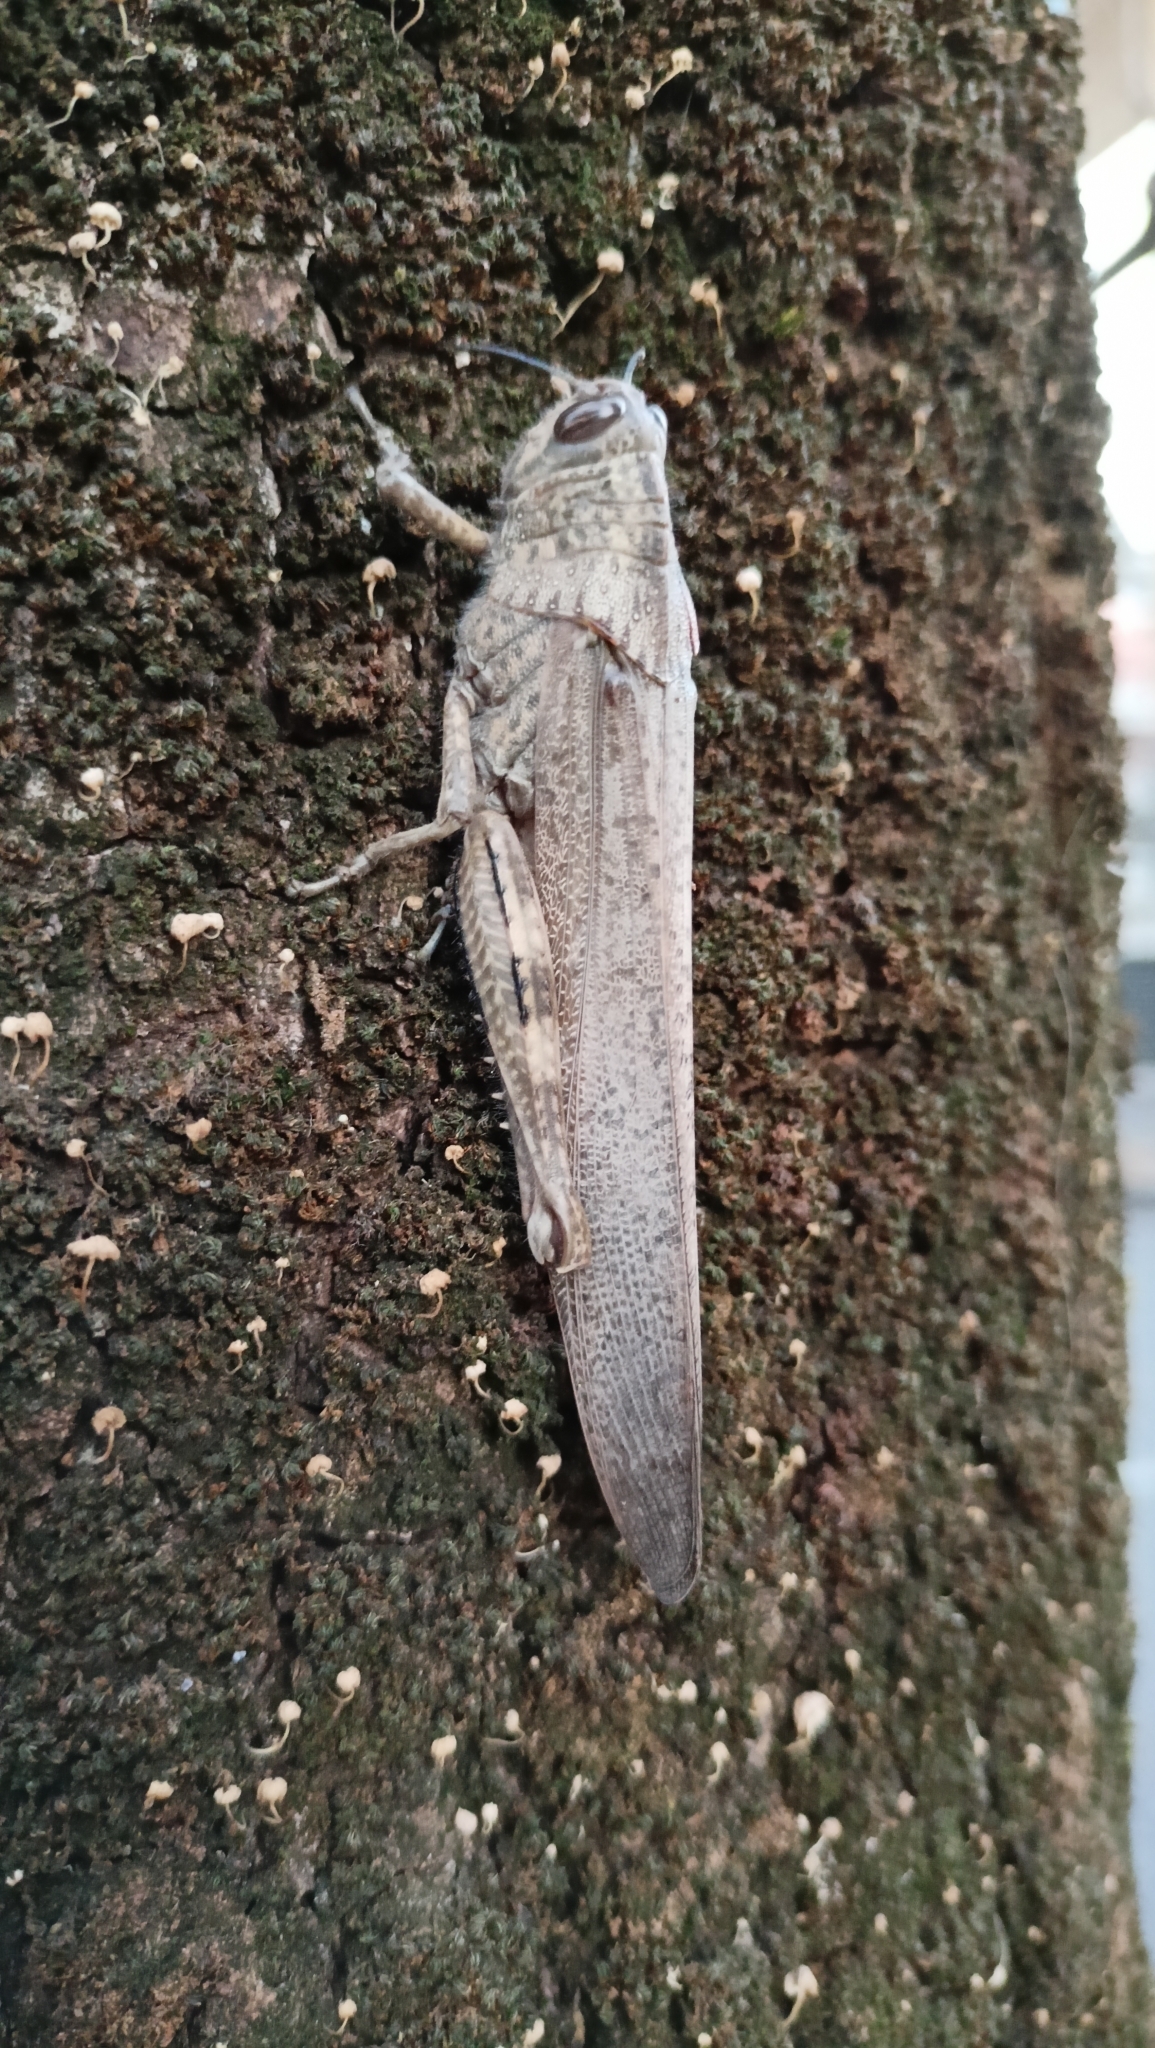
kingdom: Animalia
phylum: Arthropoda
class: Insecta
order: Orthoptera
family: Acrididae
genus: Anacridium
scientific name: Anacridium aegyptium
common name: Egyptian grasshopper
